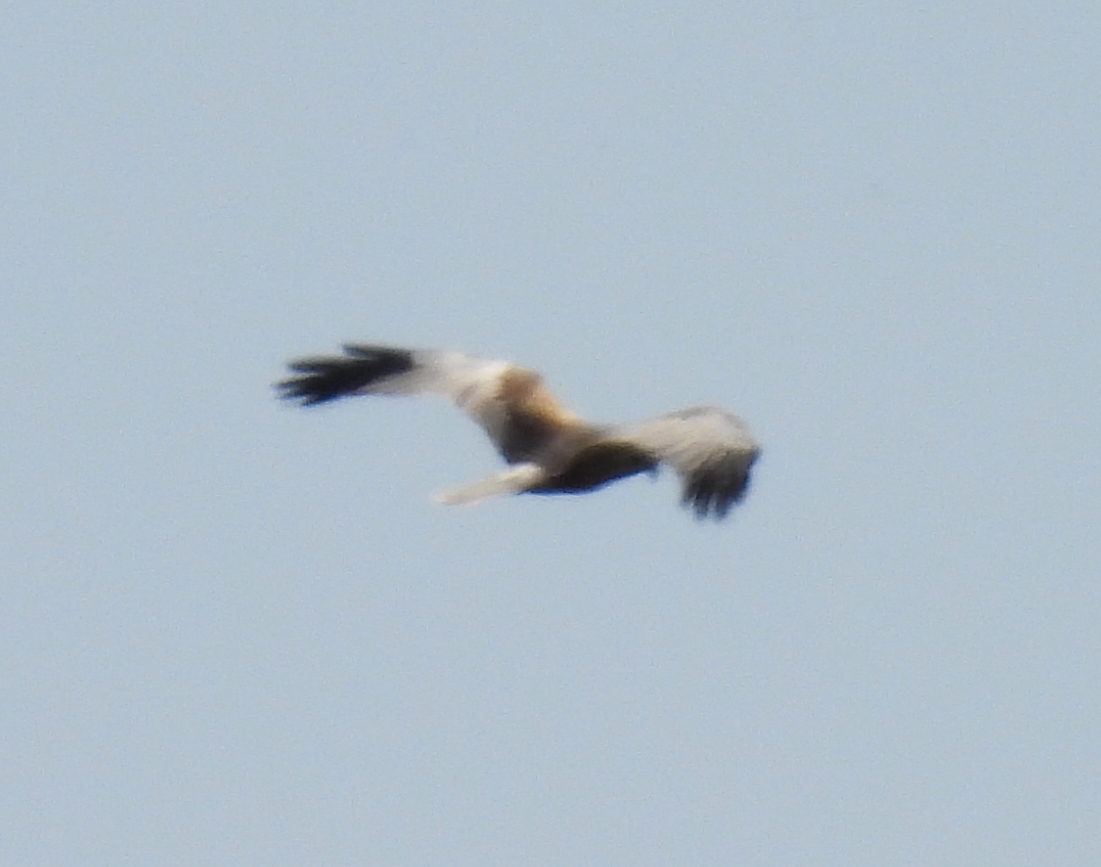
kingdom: Animalia
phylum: Chordata
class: Aves
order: Accipitriformes
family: Accipitridae
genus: Circus
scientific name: Circus aeruginosus
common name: Western marsh harrier
